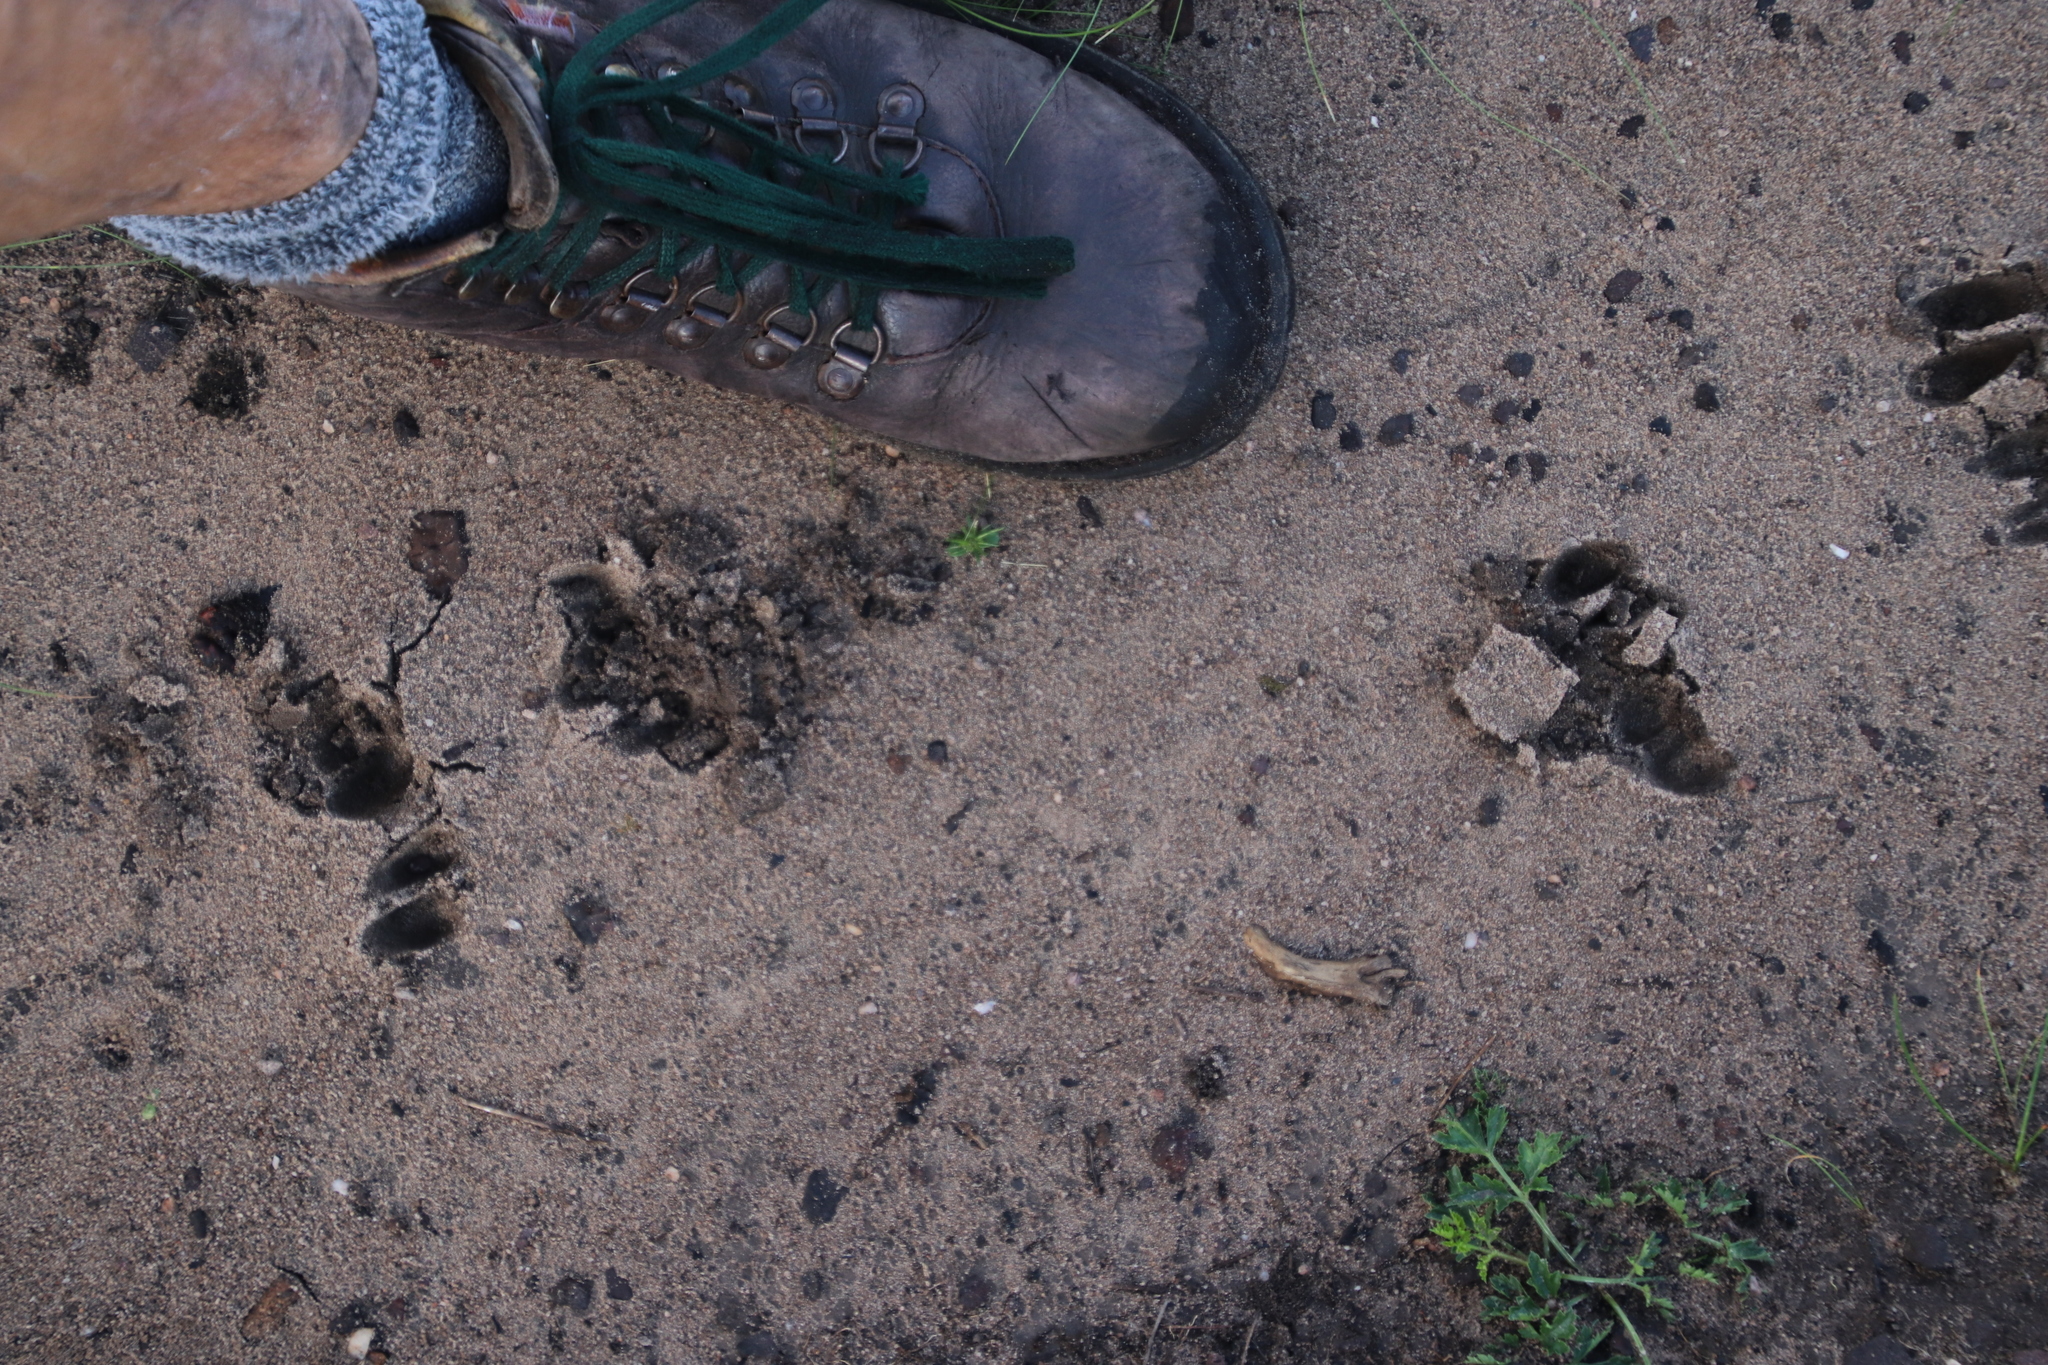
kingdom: Animalia
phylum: Chordata
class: Mammalia
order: Artiodactyla
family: Bovidae
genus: Oreotragus
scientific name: Oreotragus oreotragus
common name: Klipspringer
